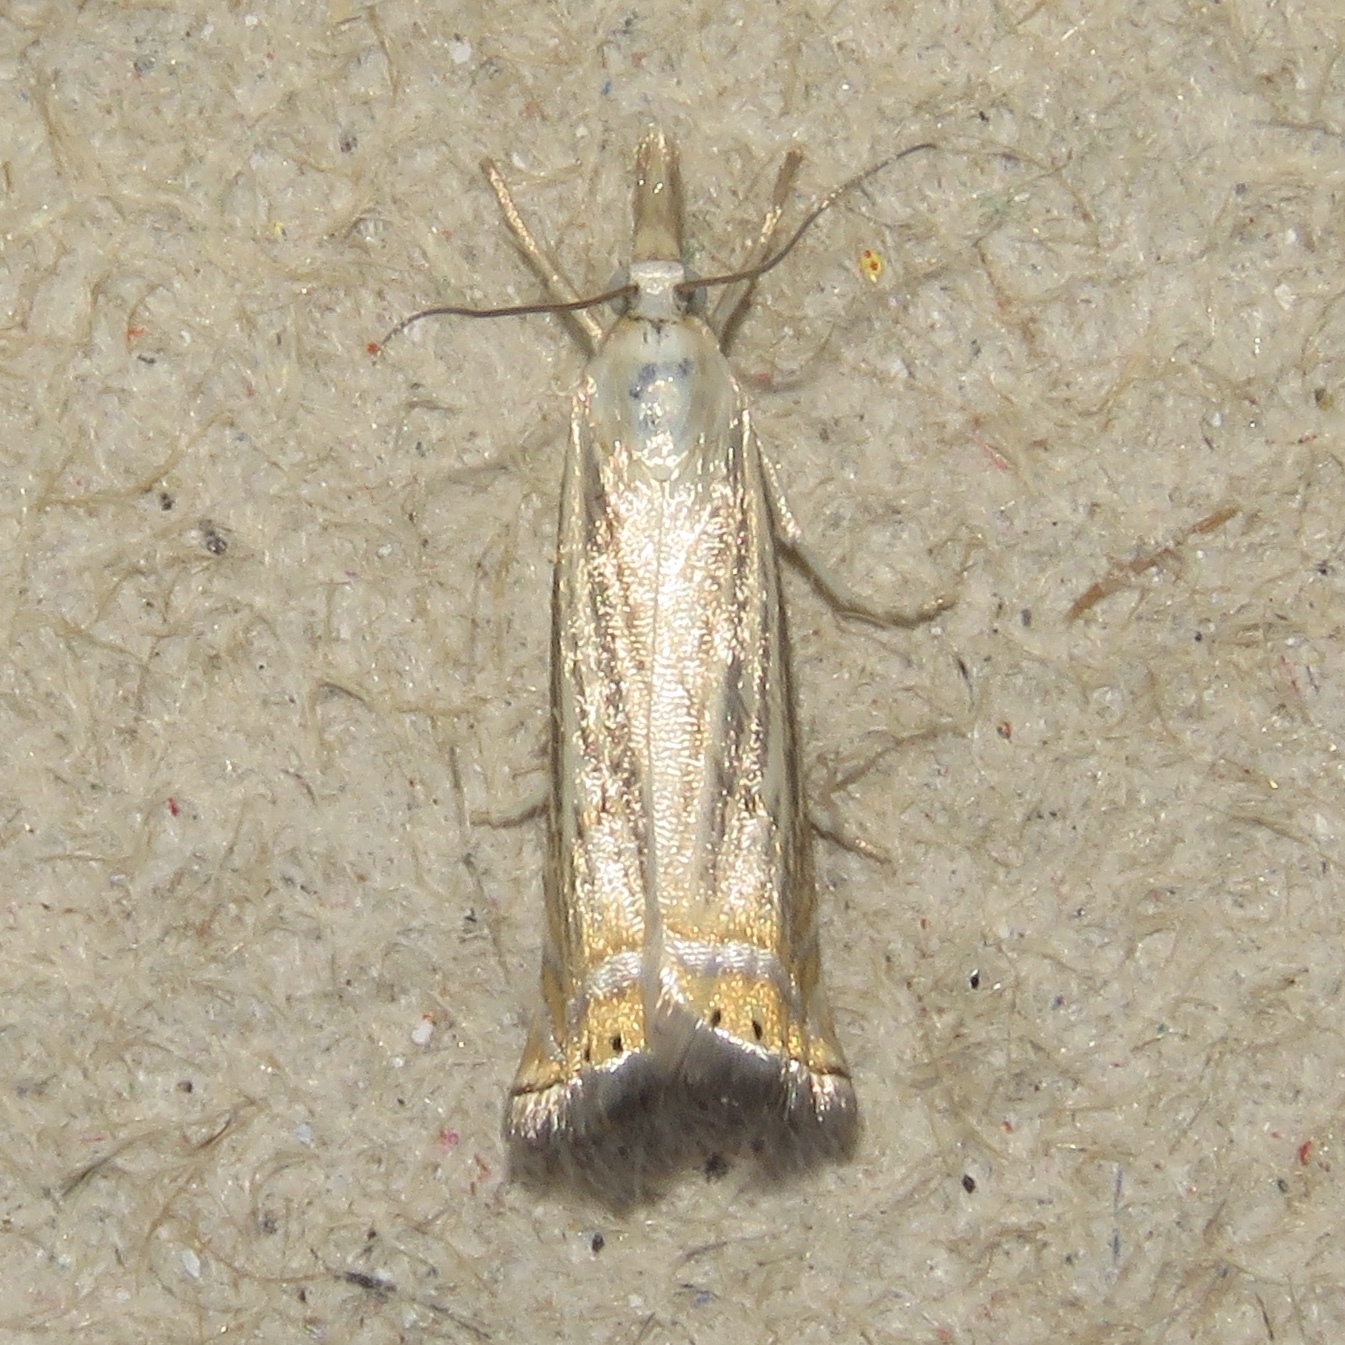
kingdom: Animalia
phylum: Arthropoda
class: Insecta
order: Lepidoptera
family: Crambidae
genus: Chrysoteuchia
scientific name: Chrysoteuchia topiarius
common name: Topiary grass-veneer
